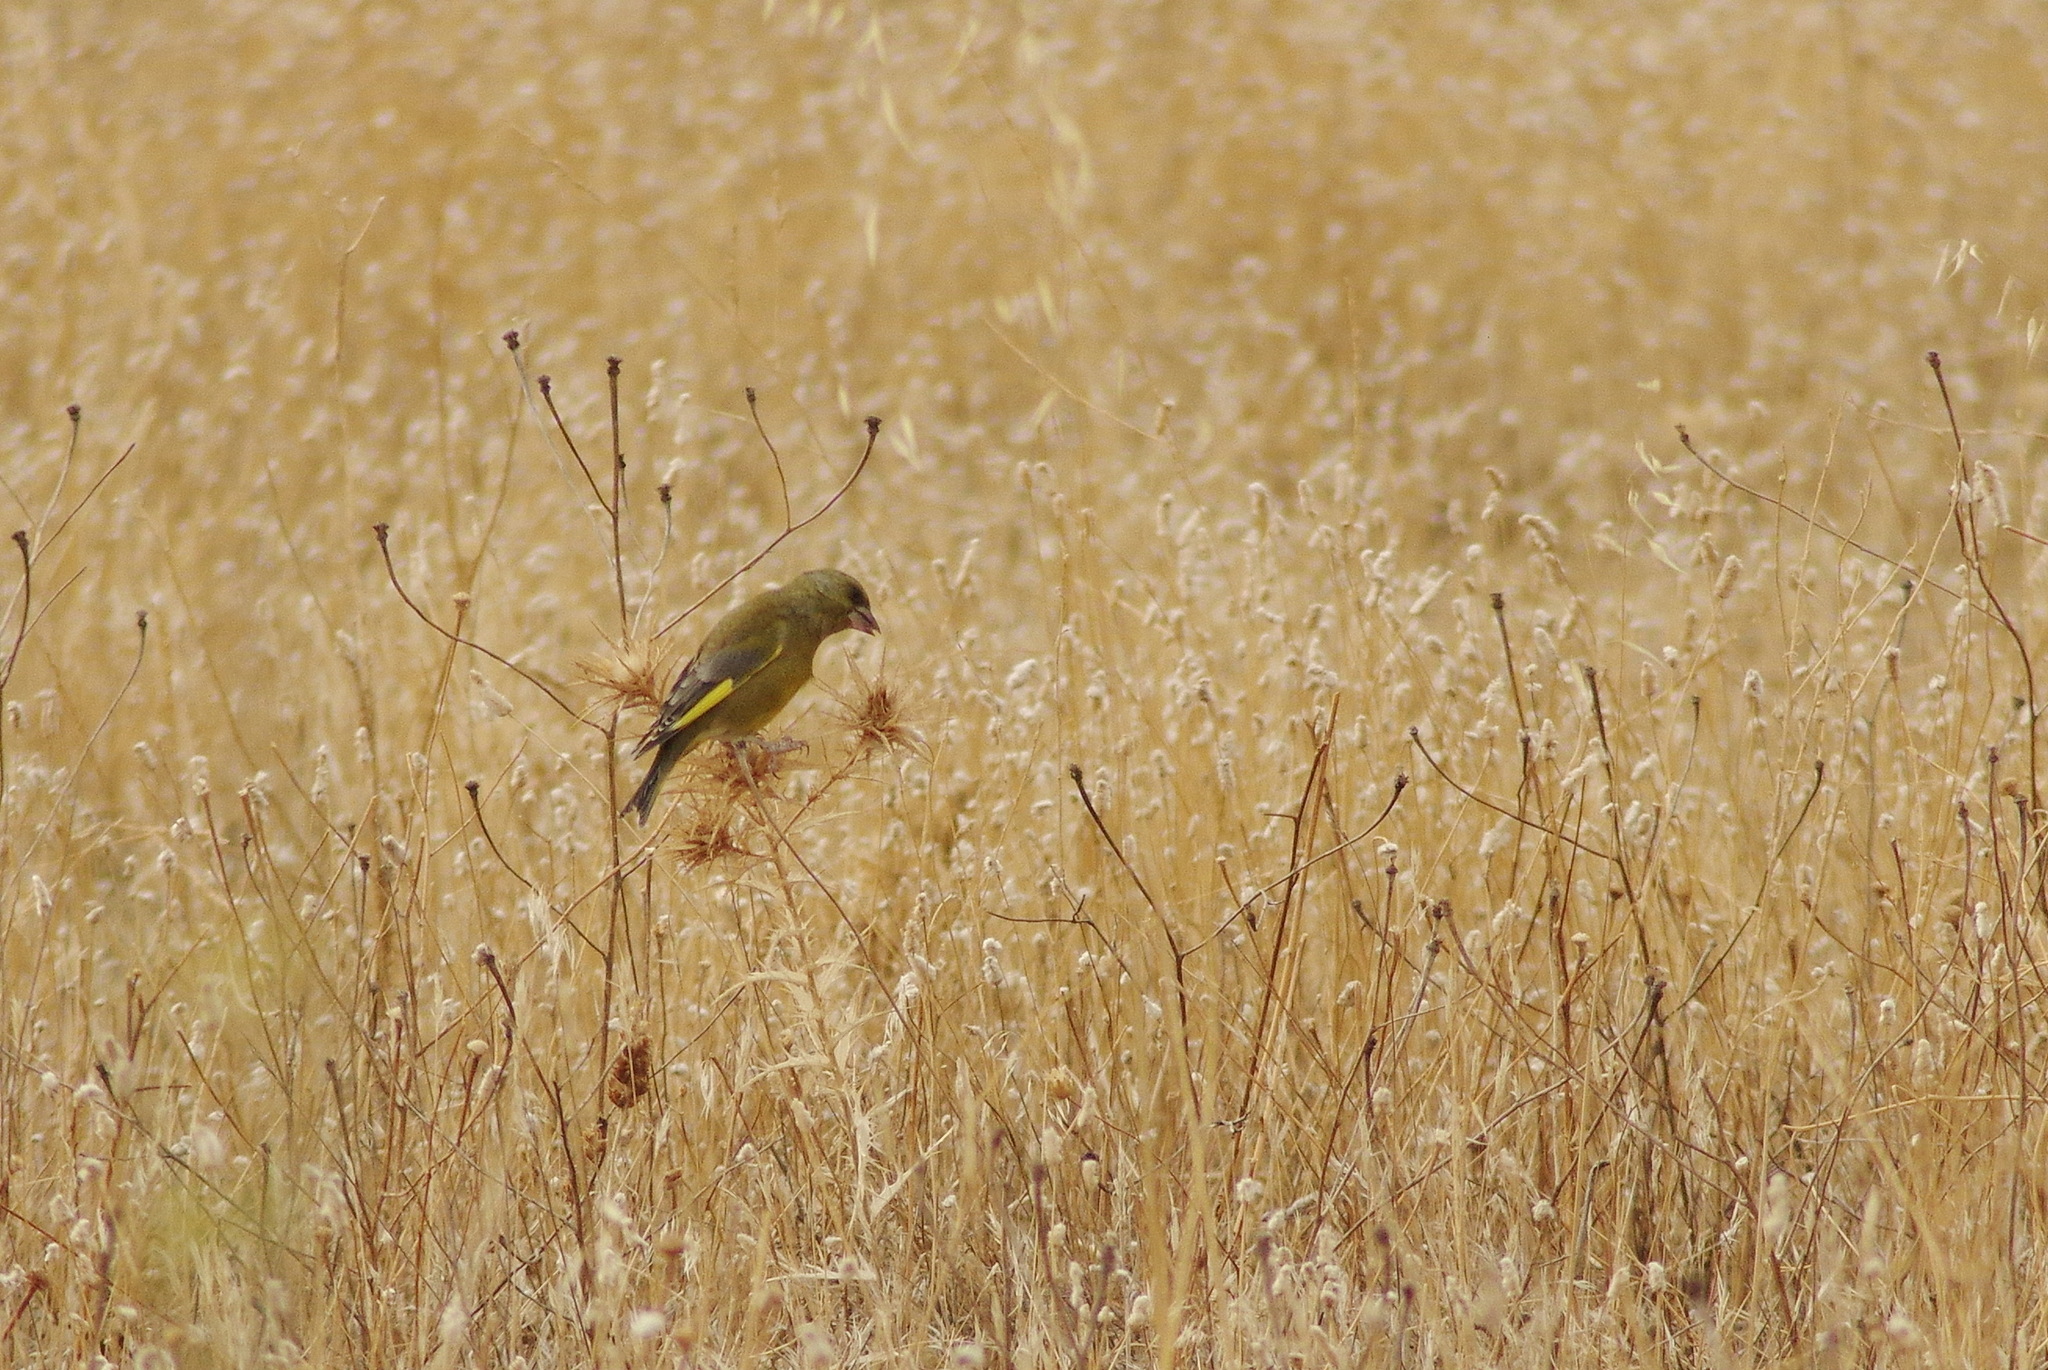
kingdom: Plantae
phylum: Tracheophyta
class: Liliopsida
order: Poales
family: Poaceae
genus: Chloris
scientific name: Chloris chloris
